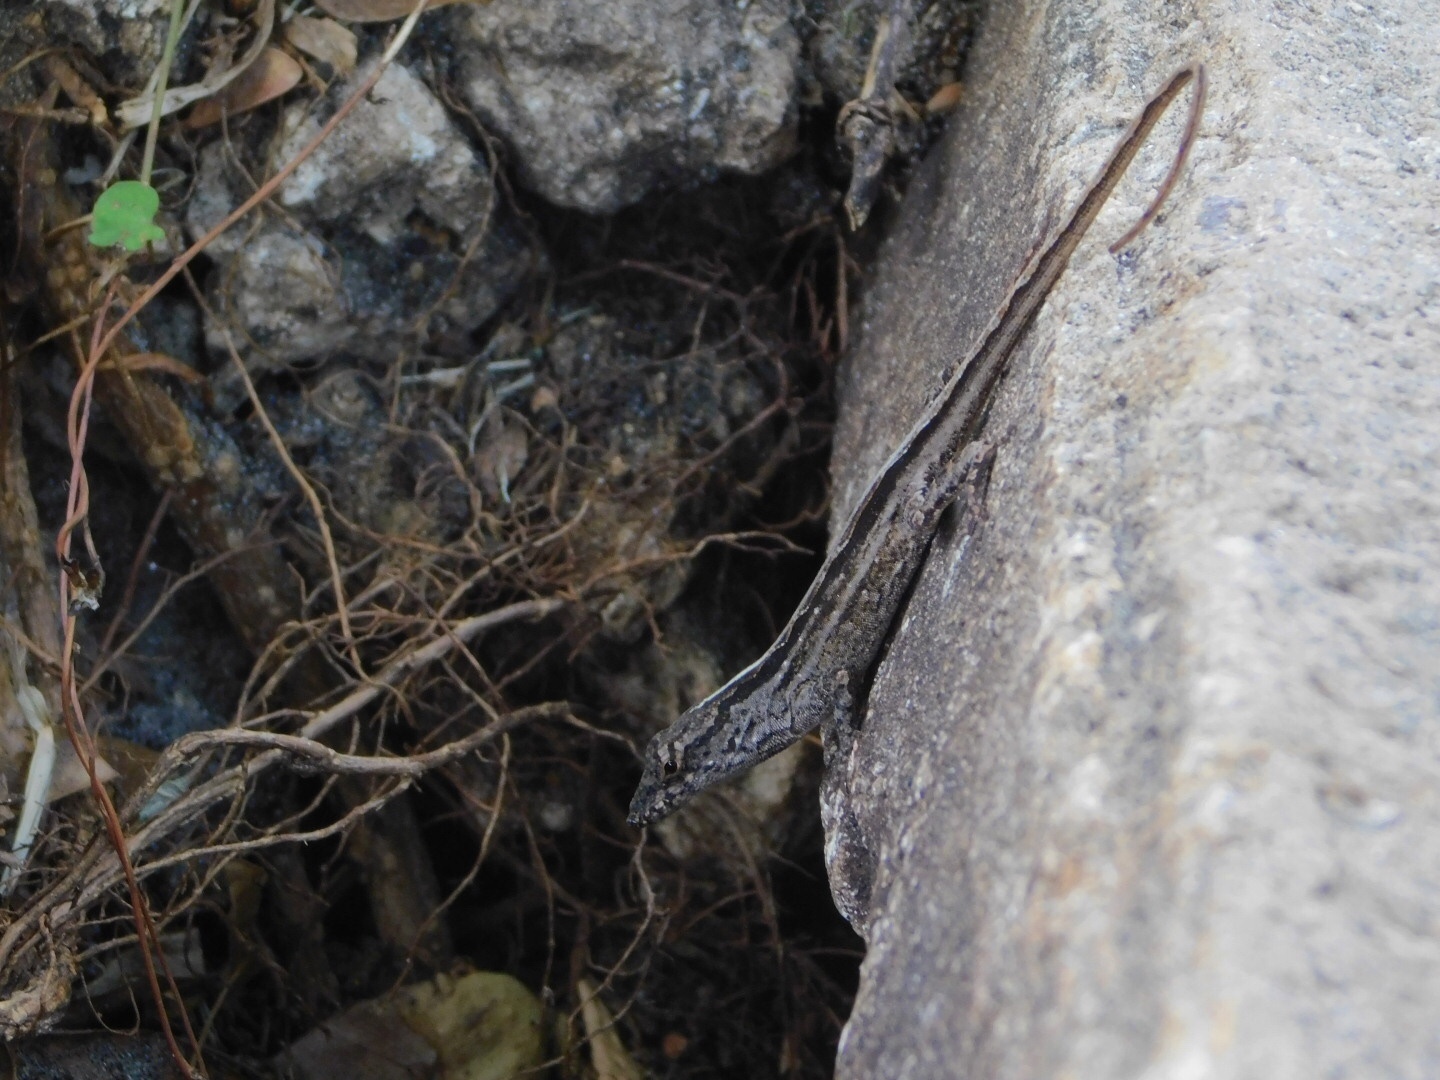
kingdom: Animalia
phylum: Chordata
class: Squamata
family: Dactyloidae
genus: Anolis
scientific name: Anolis sagrei
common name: Brown anole
